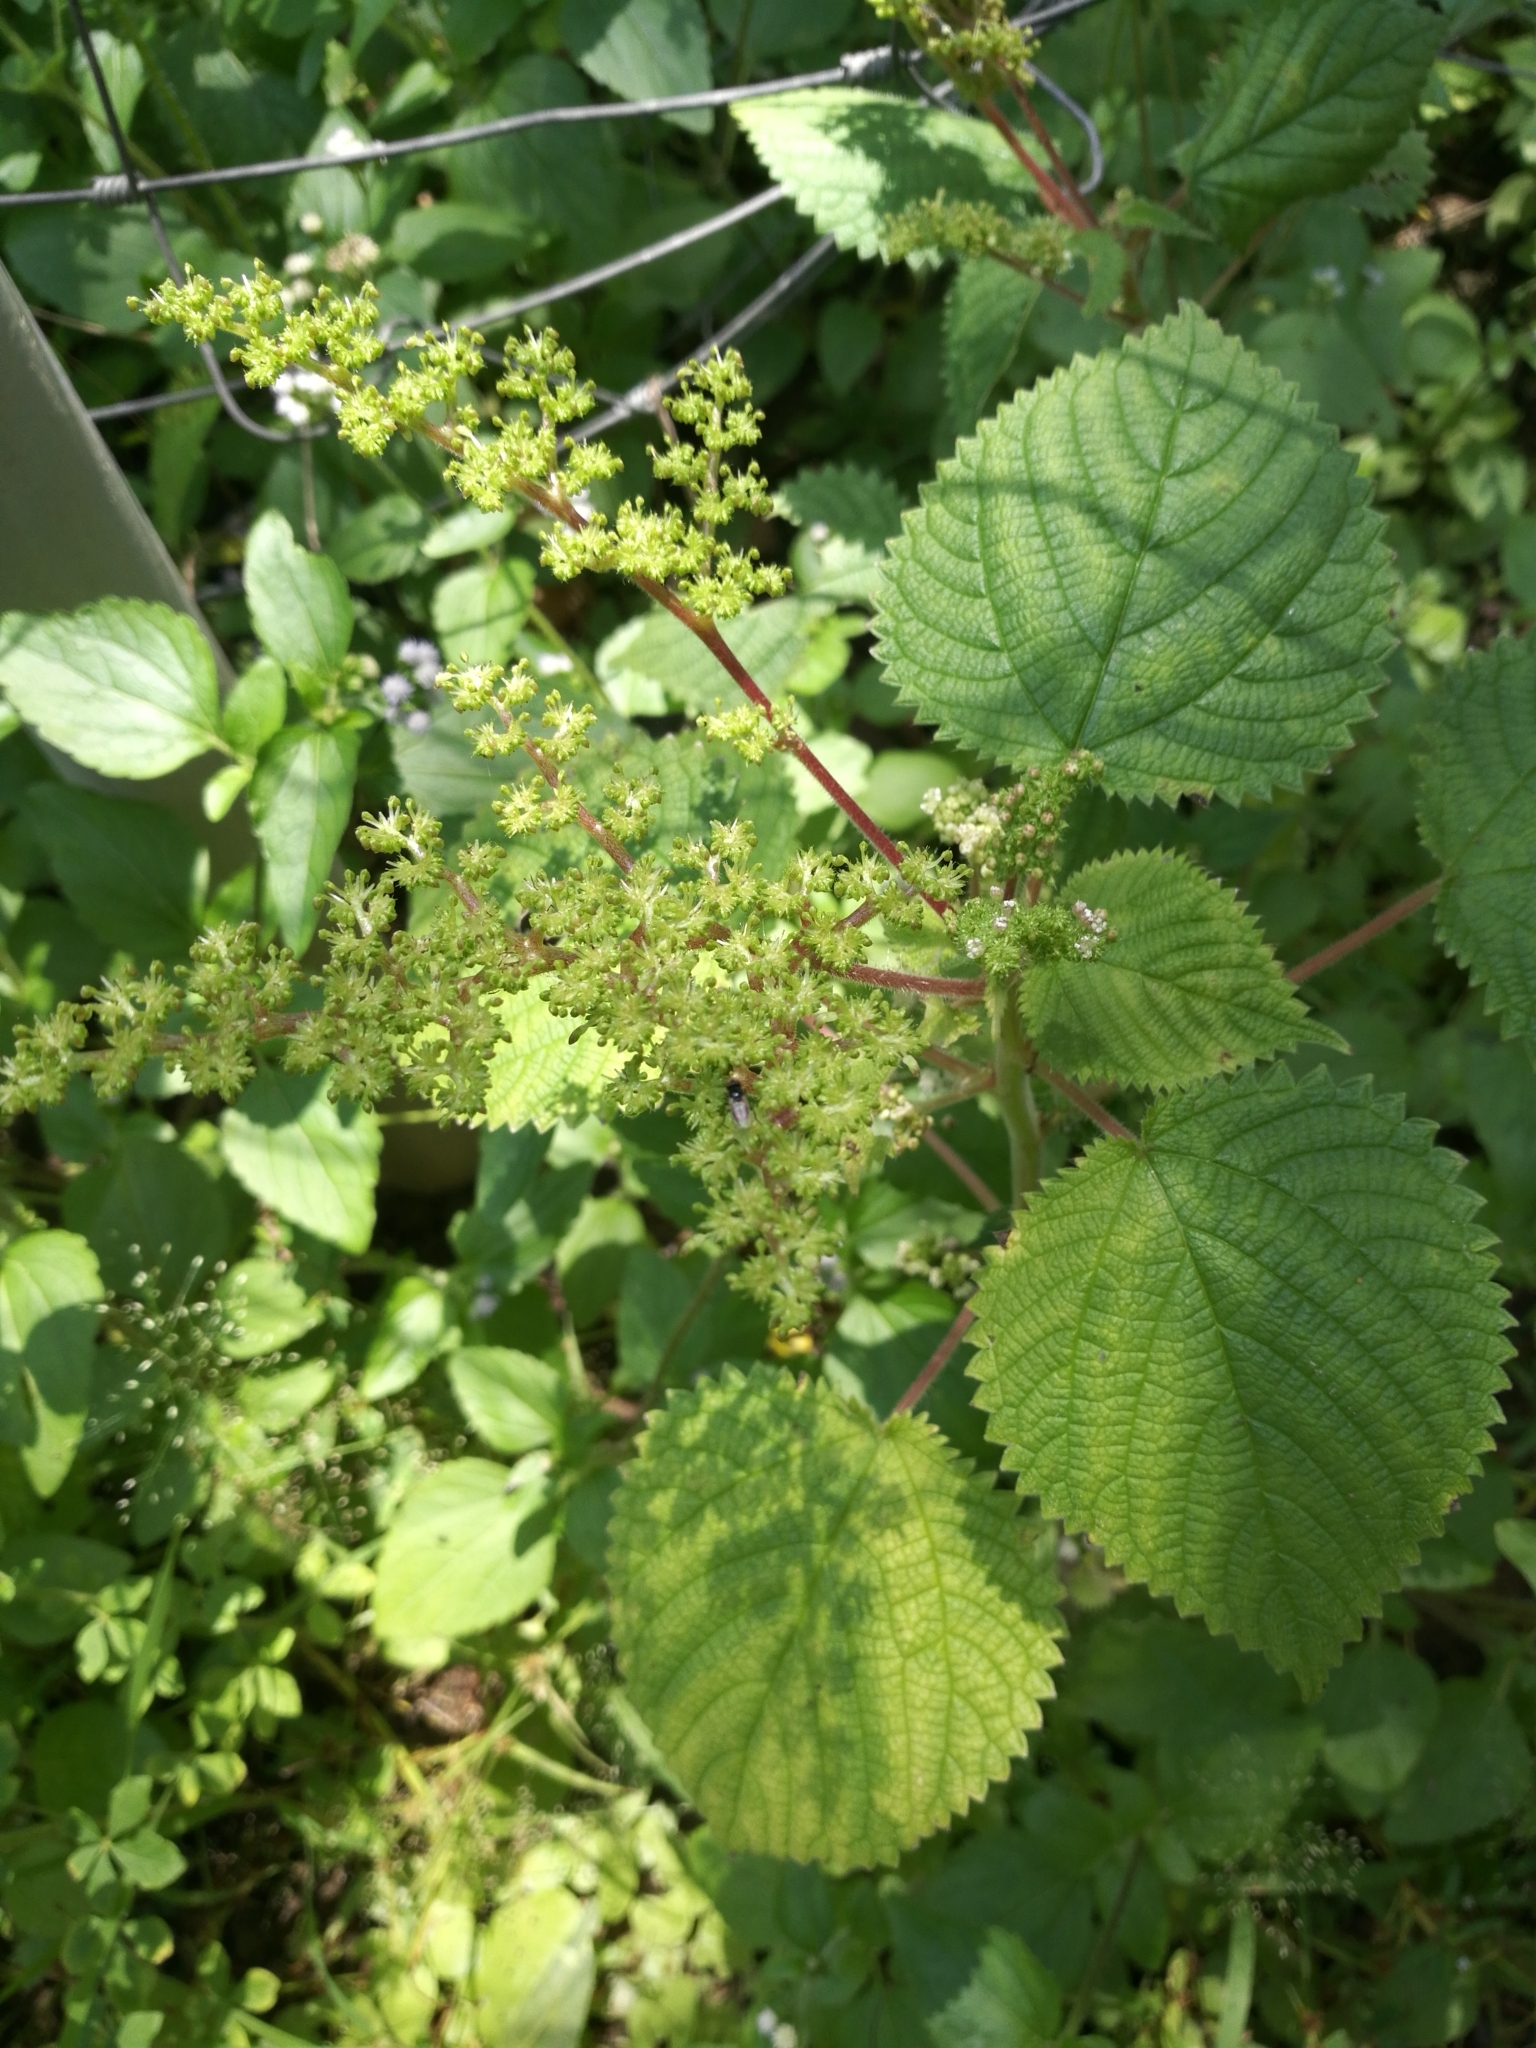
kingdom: Plantae
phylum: Tracheophyta
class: Magnoliopsida
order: Rosales
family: Urticaceae
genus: Laportea
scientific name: Laportea aestuans
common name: West indian woodnettle
